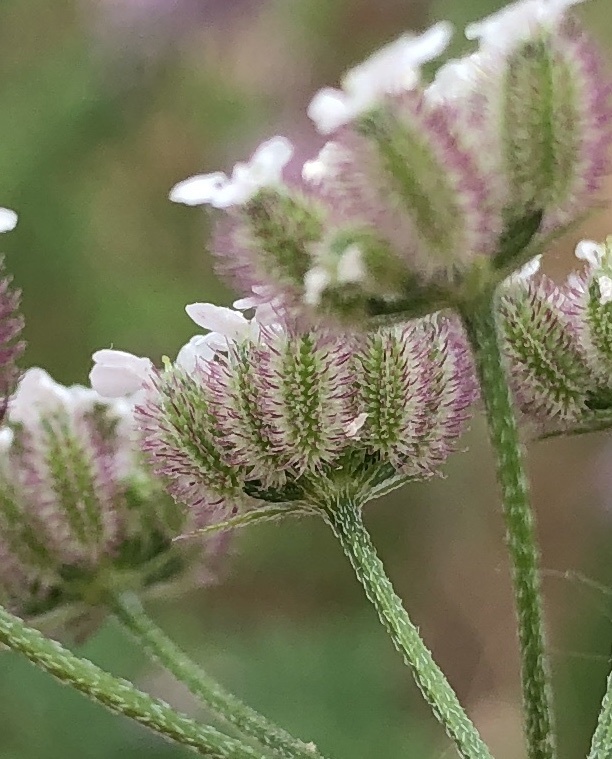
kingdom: Plantae
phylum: Tracheophyta
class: Magnoliopsida
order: Apiales
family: Apiaceae
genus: Torilis
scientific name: Torilis japonica
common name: Upright hedge-parsley
